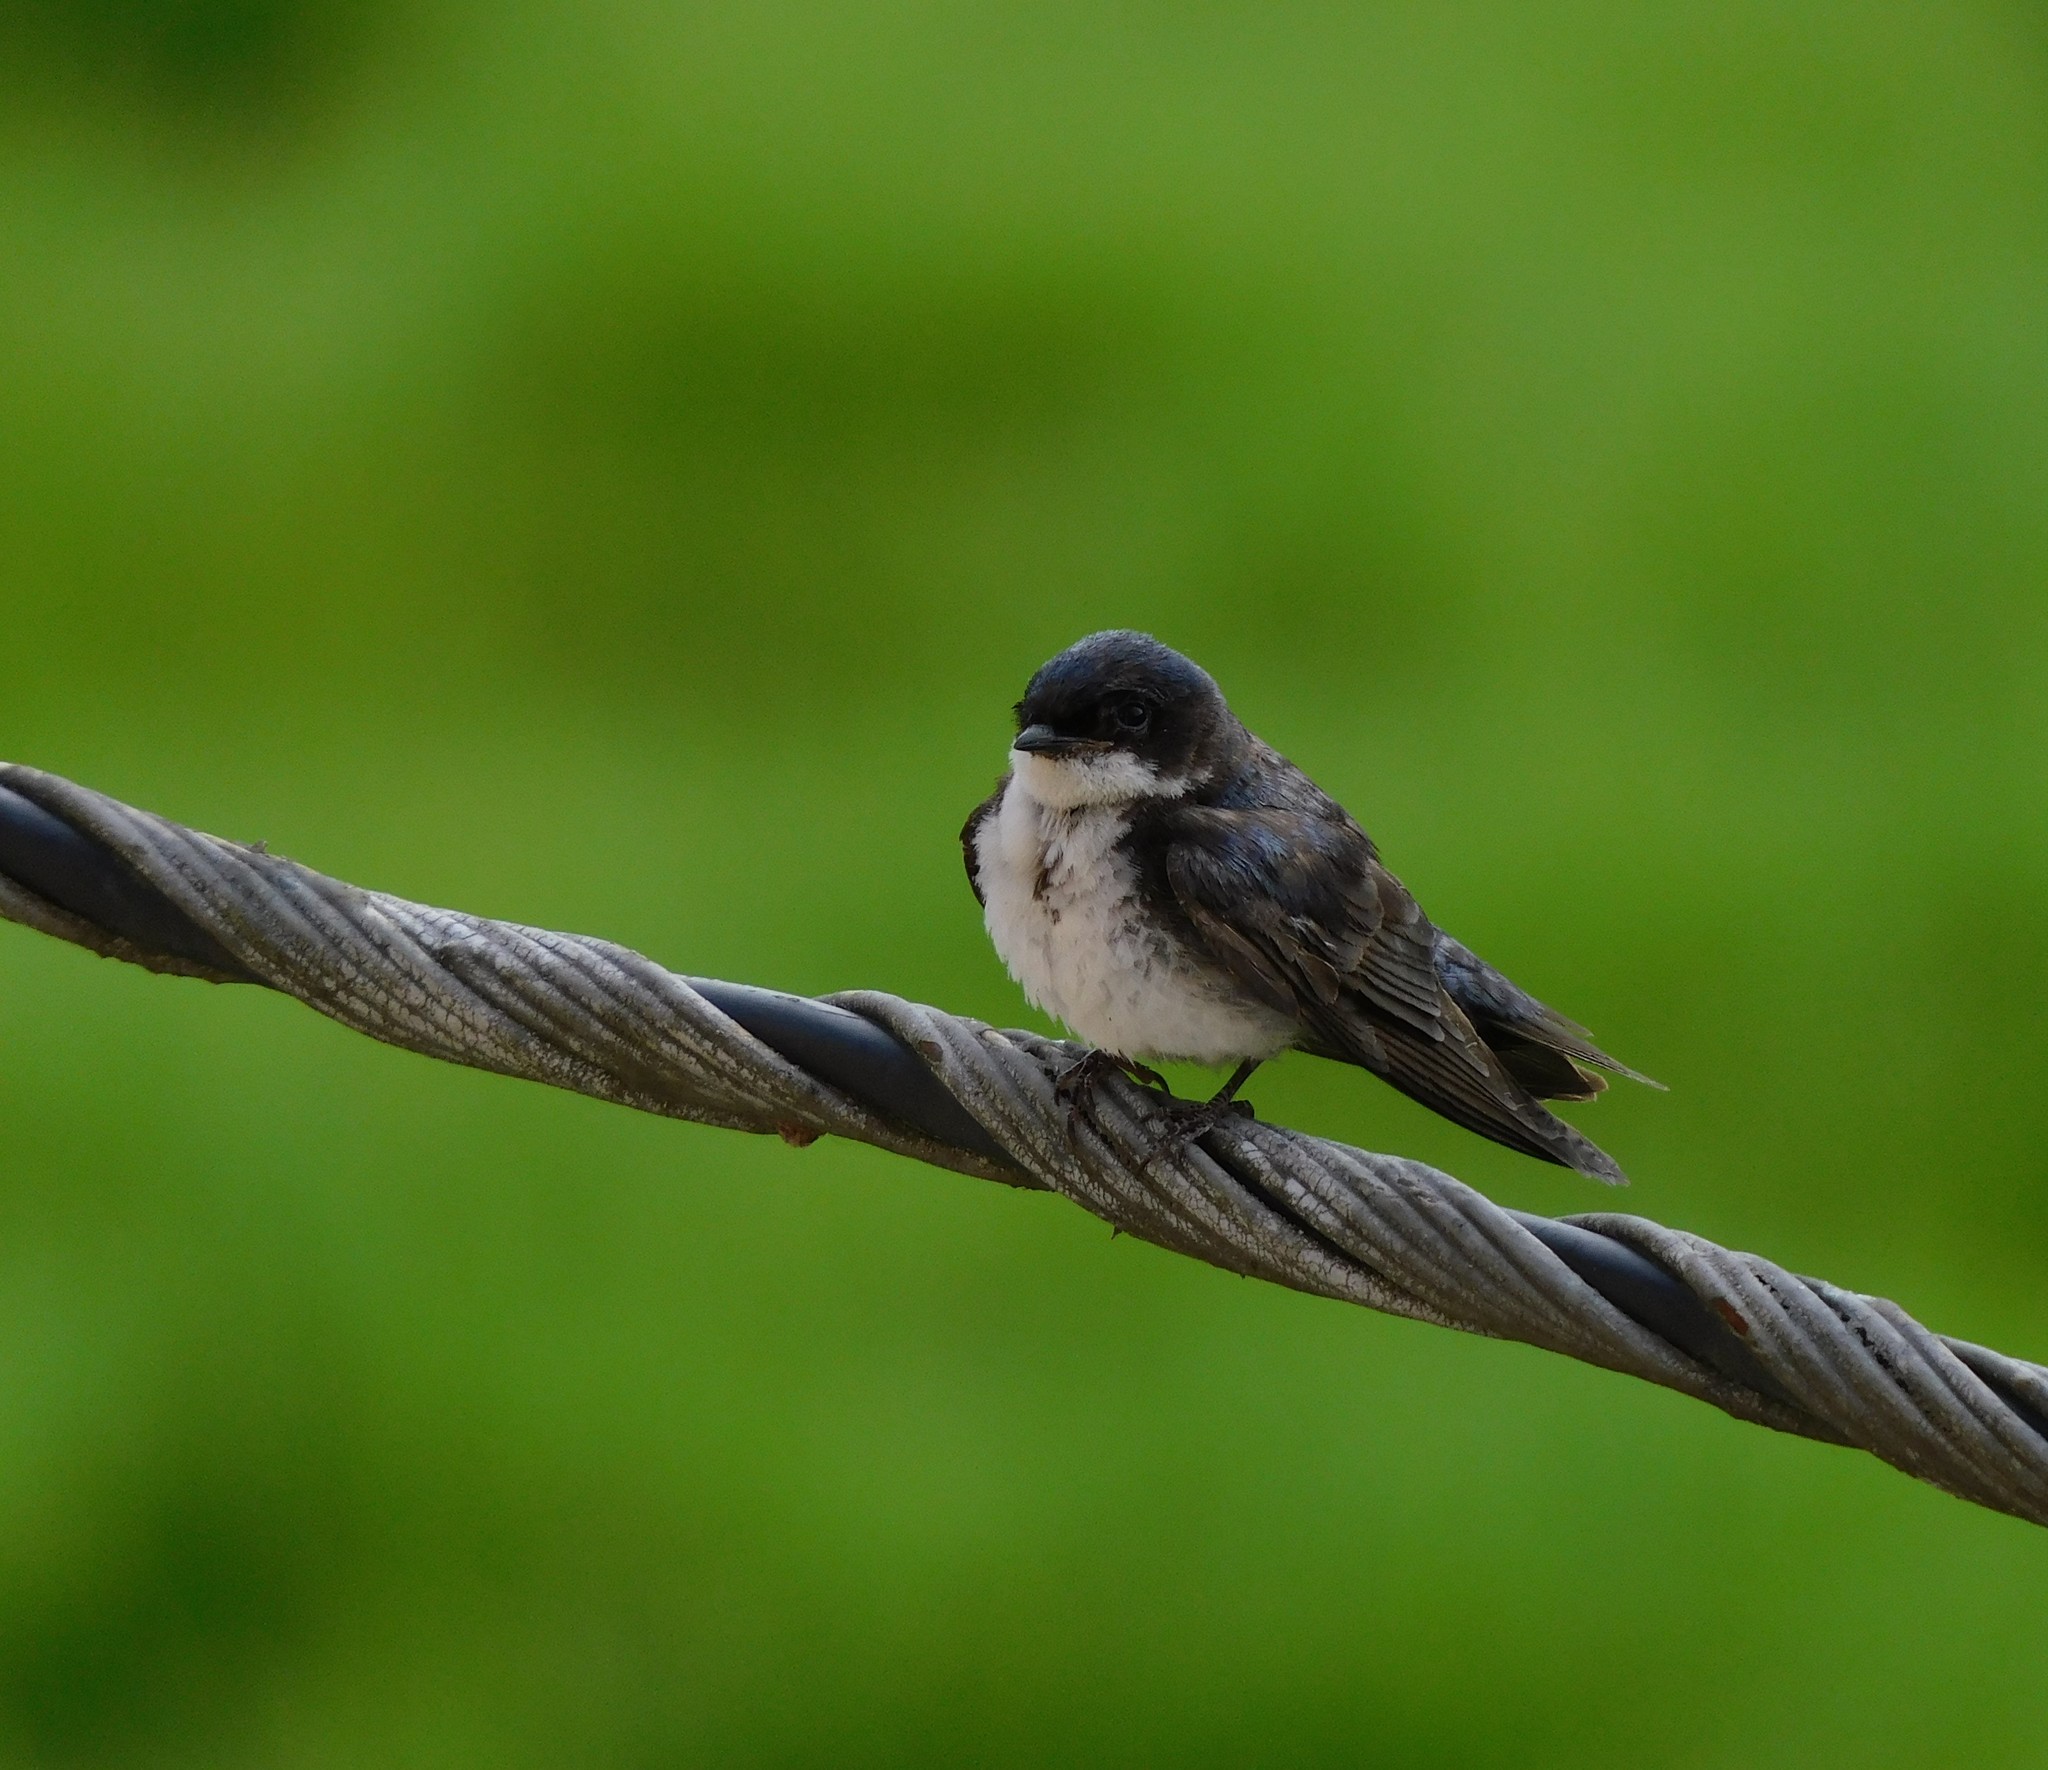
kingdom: Animalia
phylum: Chordata
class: Aves
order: Passeriformes
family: Hirundinidae
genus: Notiochelidon
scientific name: Notiochelidon cyanoleuca
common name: Blue-and-white swallow
